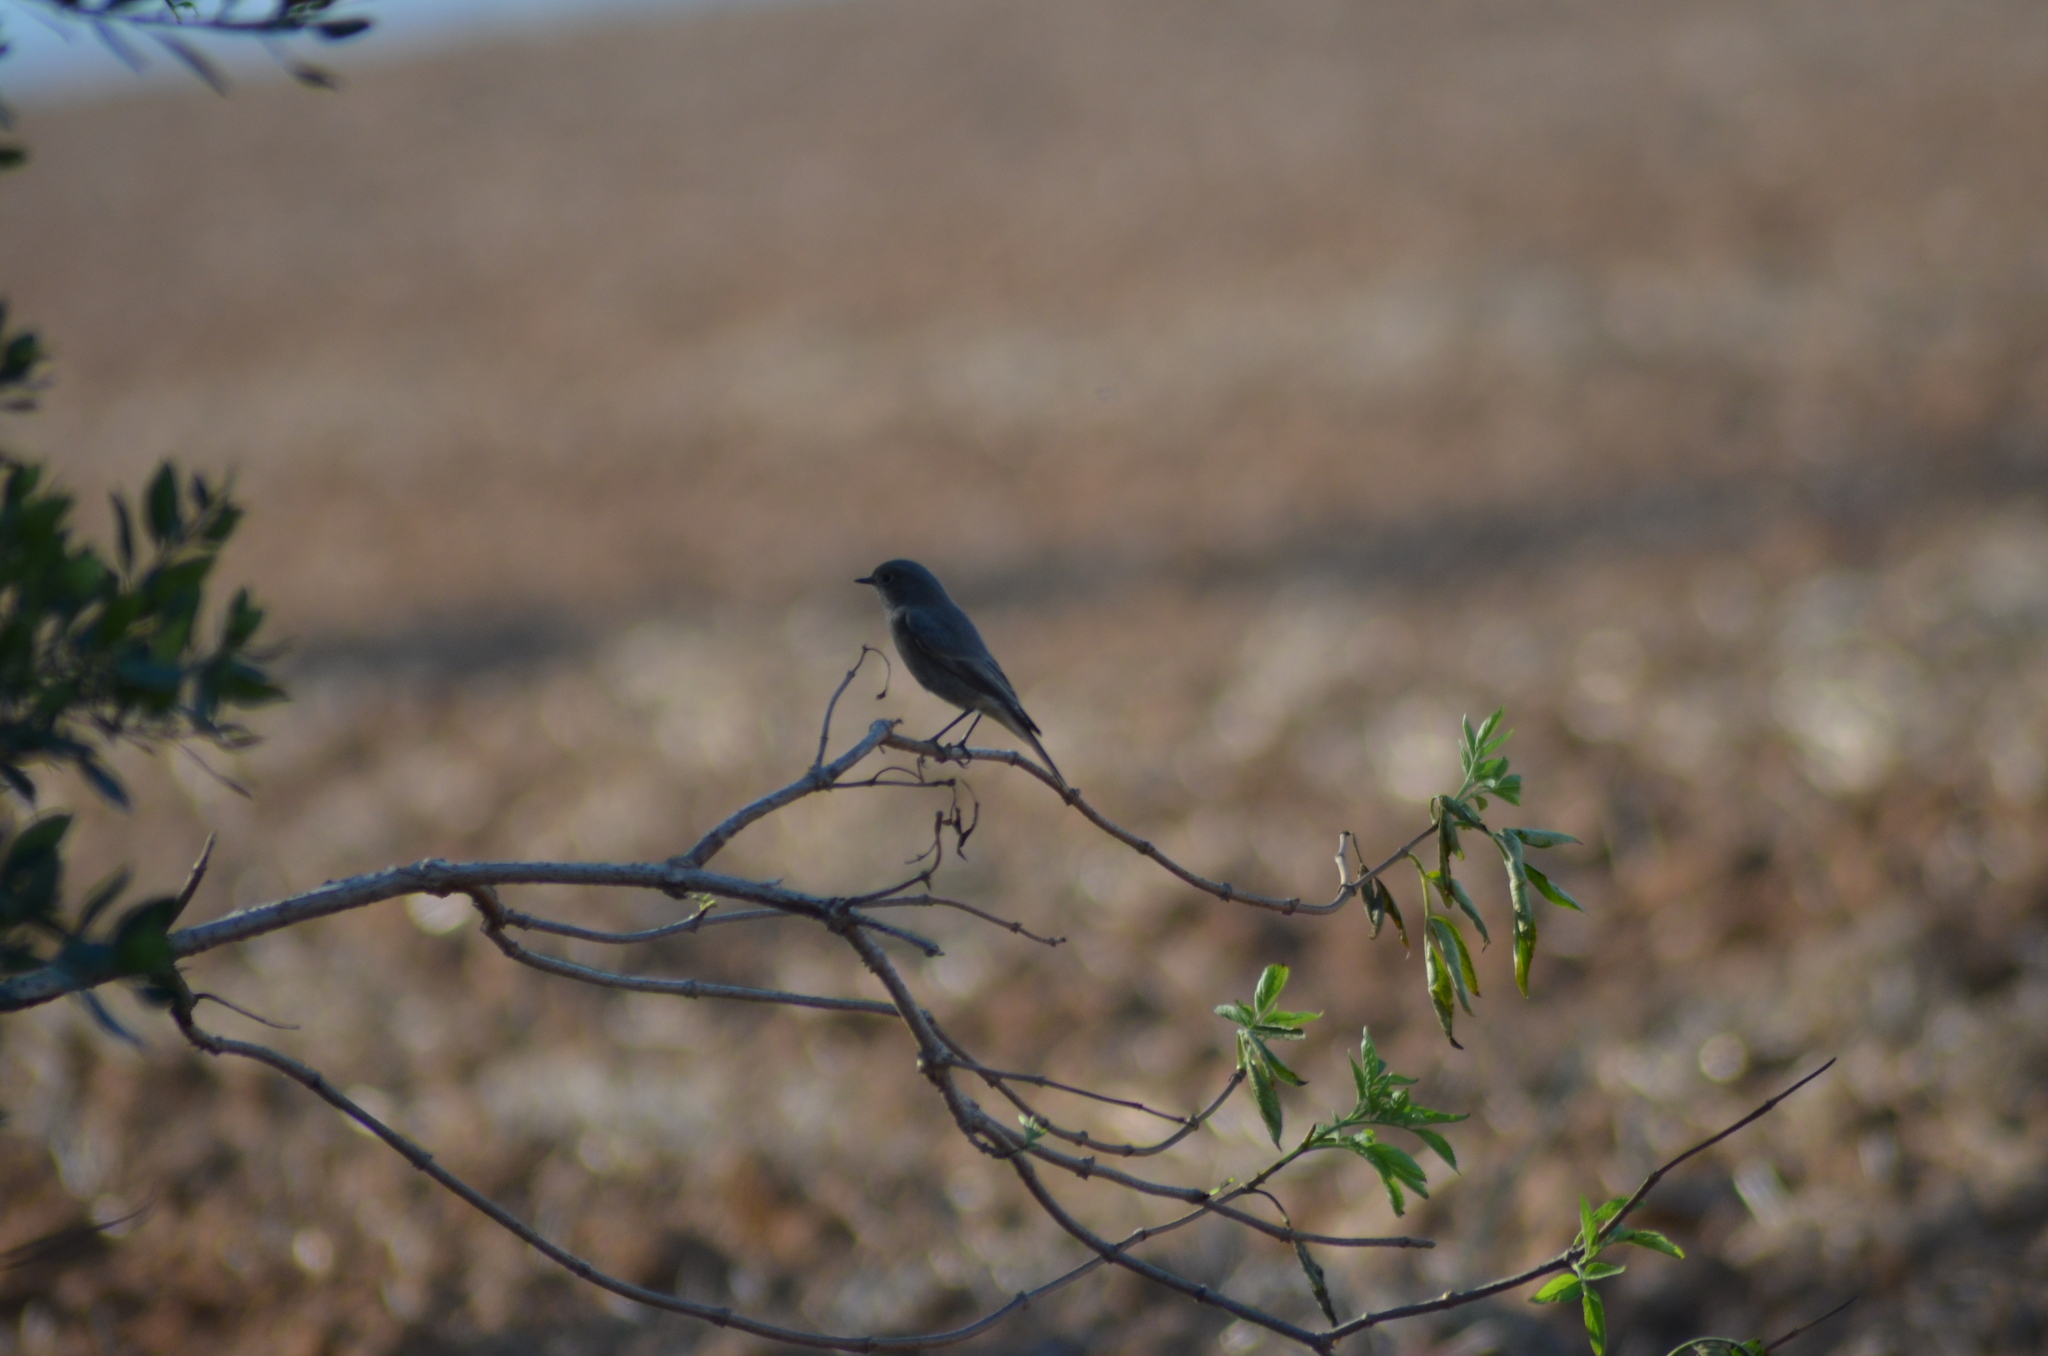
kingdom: Animalia
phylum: Chordata
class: Aves
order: Passeriformes
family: Muscicapidae
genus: Phoenicurus
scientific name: Phoenicurus ochruros
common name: Black redstart
